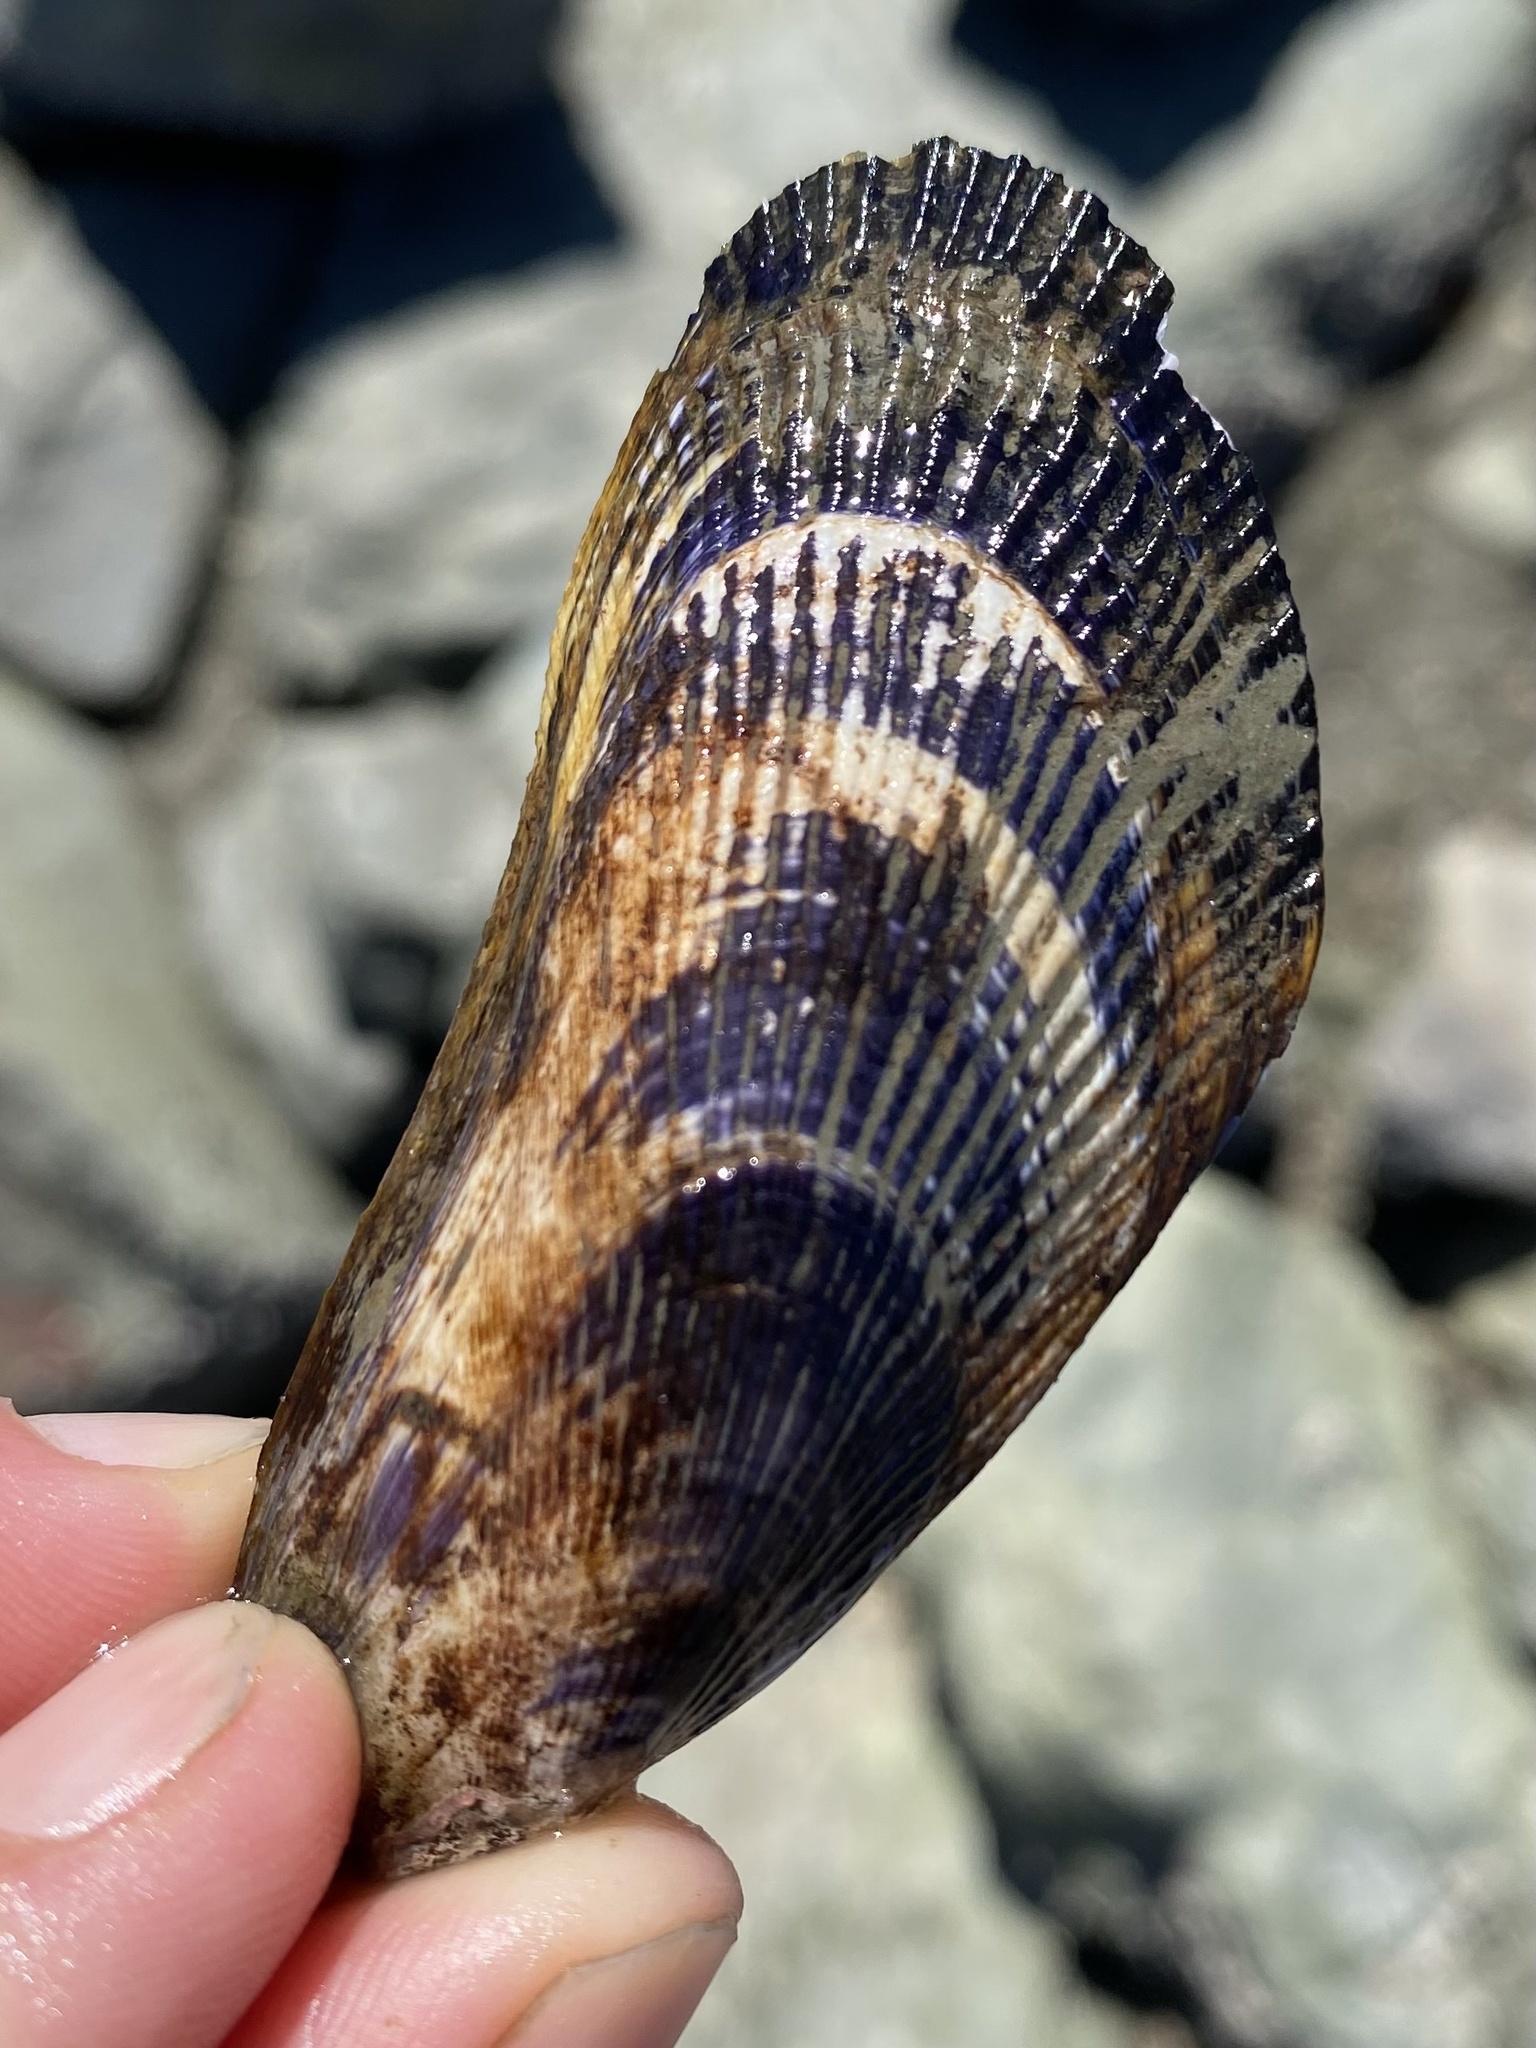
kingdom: Animalia
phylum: Mollusca
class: Bivalvia
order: Mytilida
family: Mytilidae
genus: Geukensia
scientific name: Geukensia demissa
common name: Ribbed mussel
